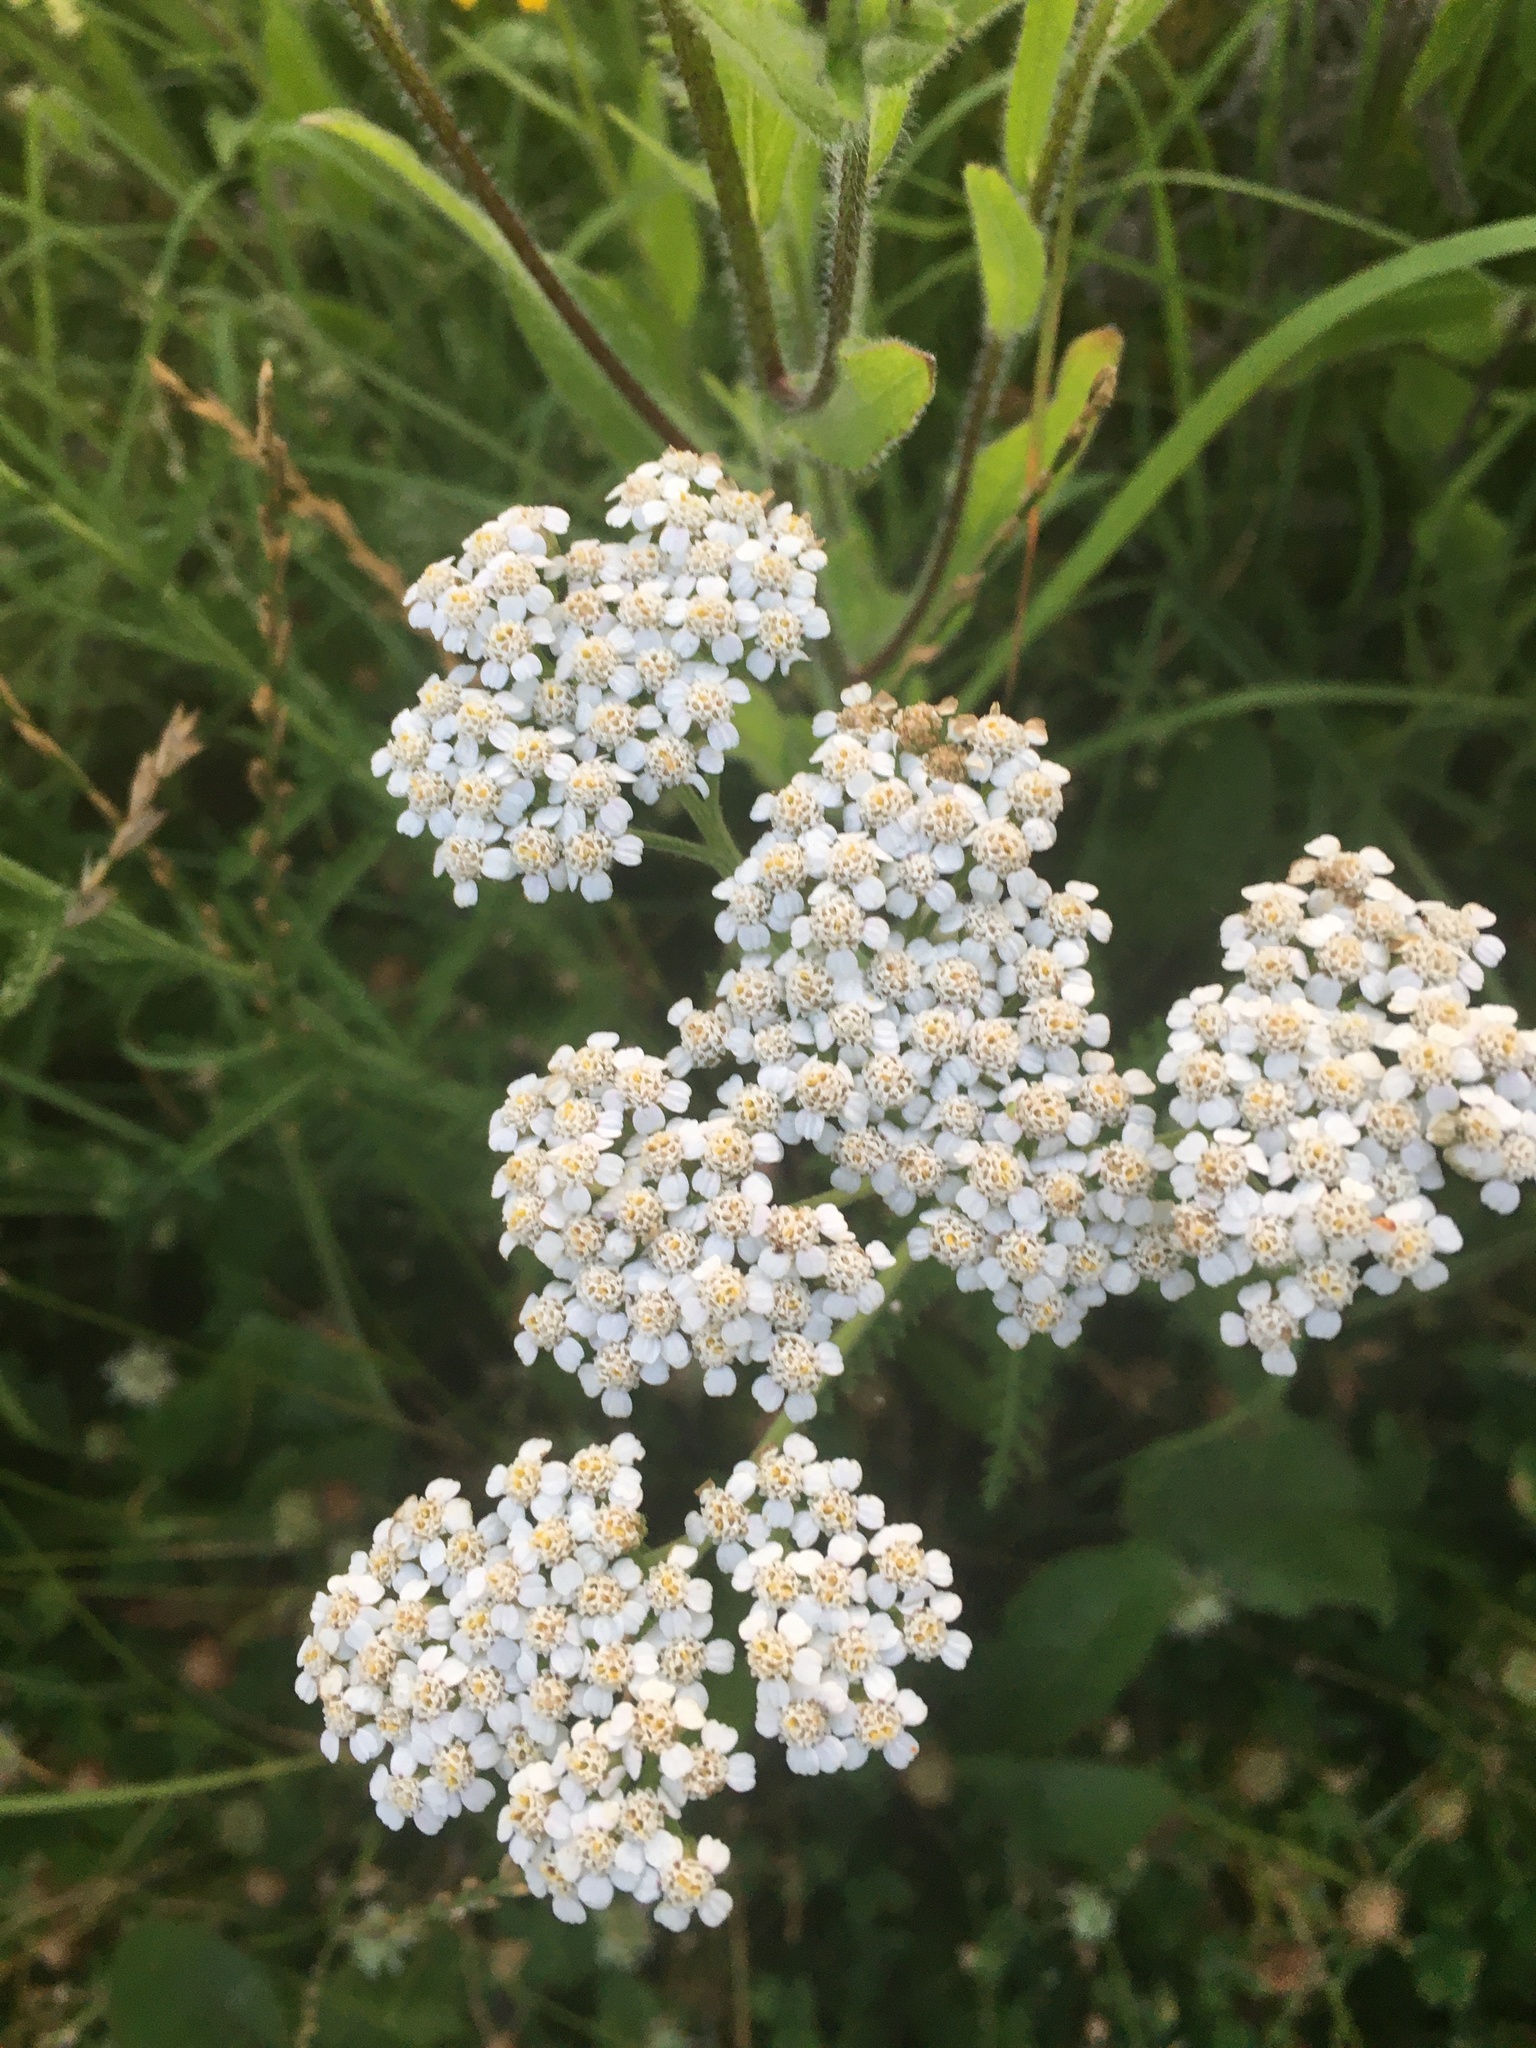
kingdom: Plantae
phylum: Tracheophyta
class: Magnoliopsida
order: Asterales
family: Asteraceae
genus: Achillea
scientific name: Achillea millefolium
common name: Yarrow
